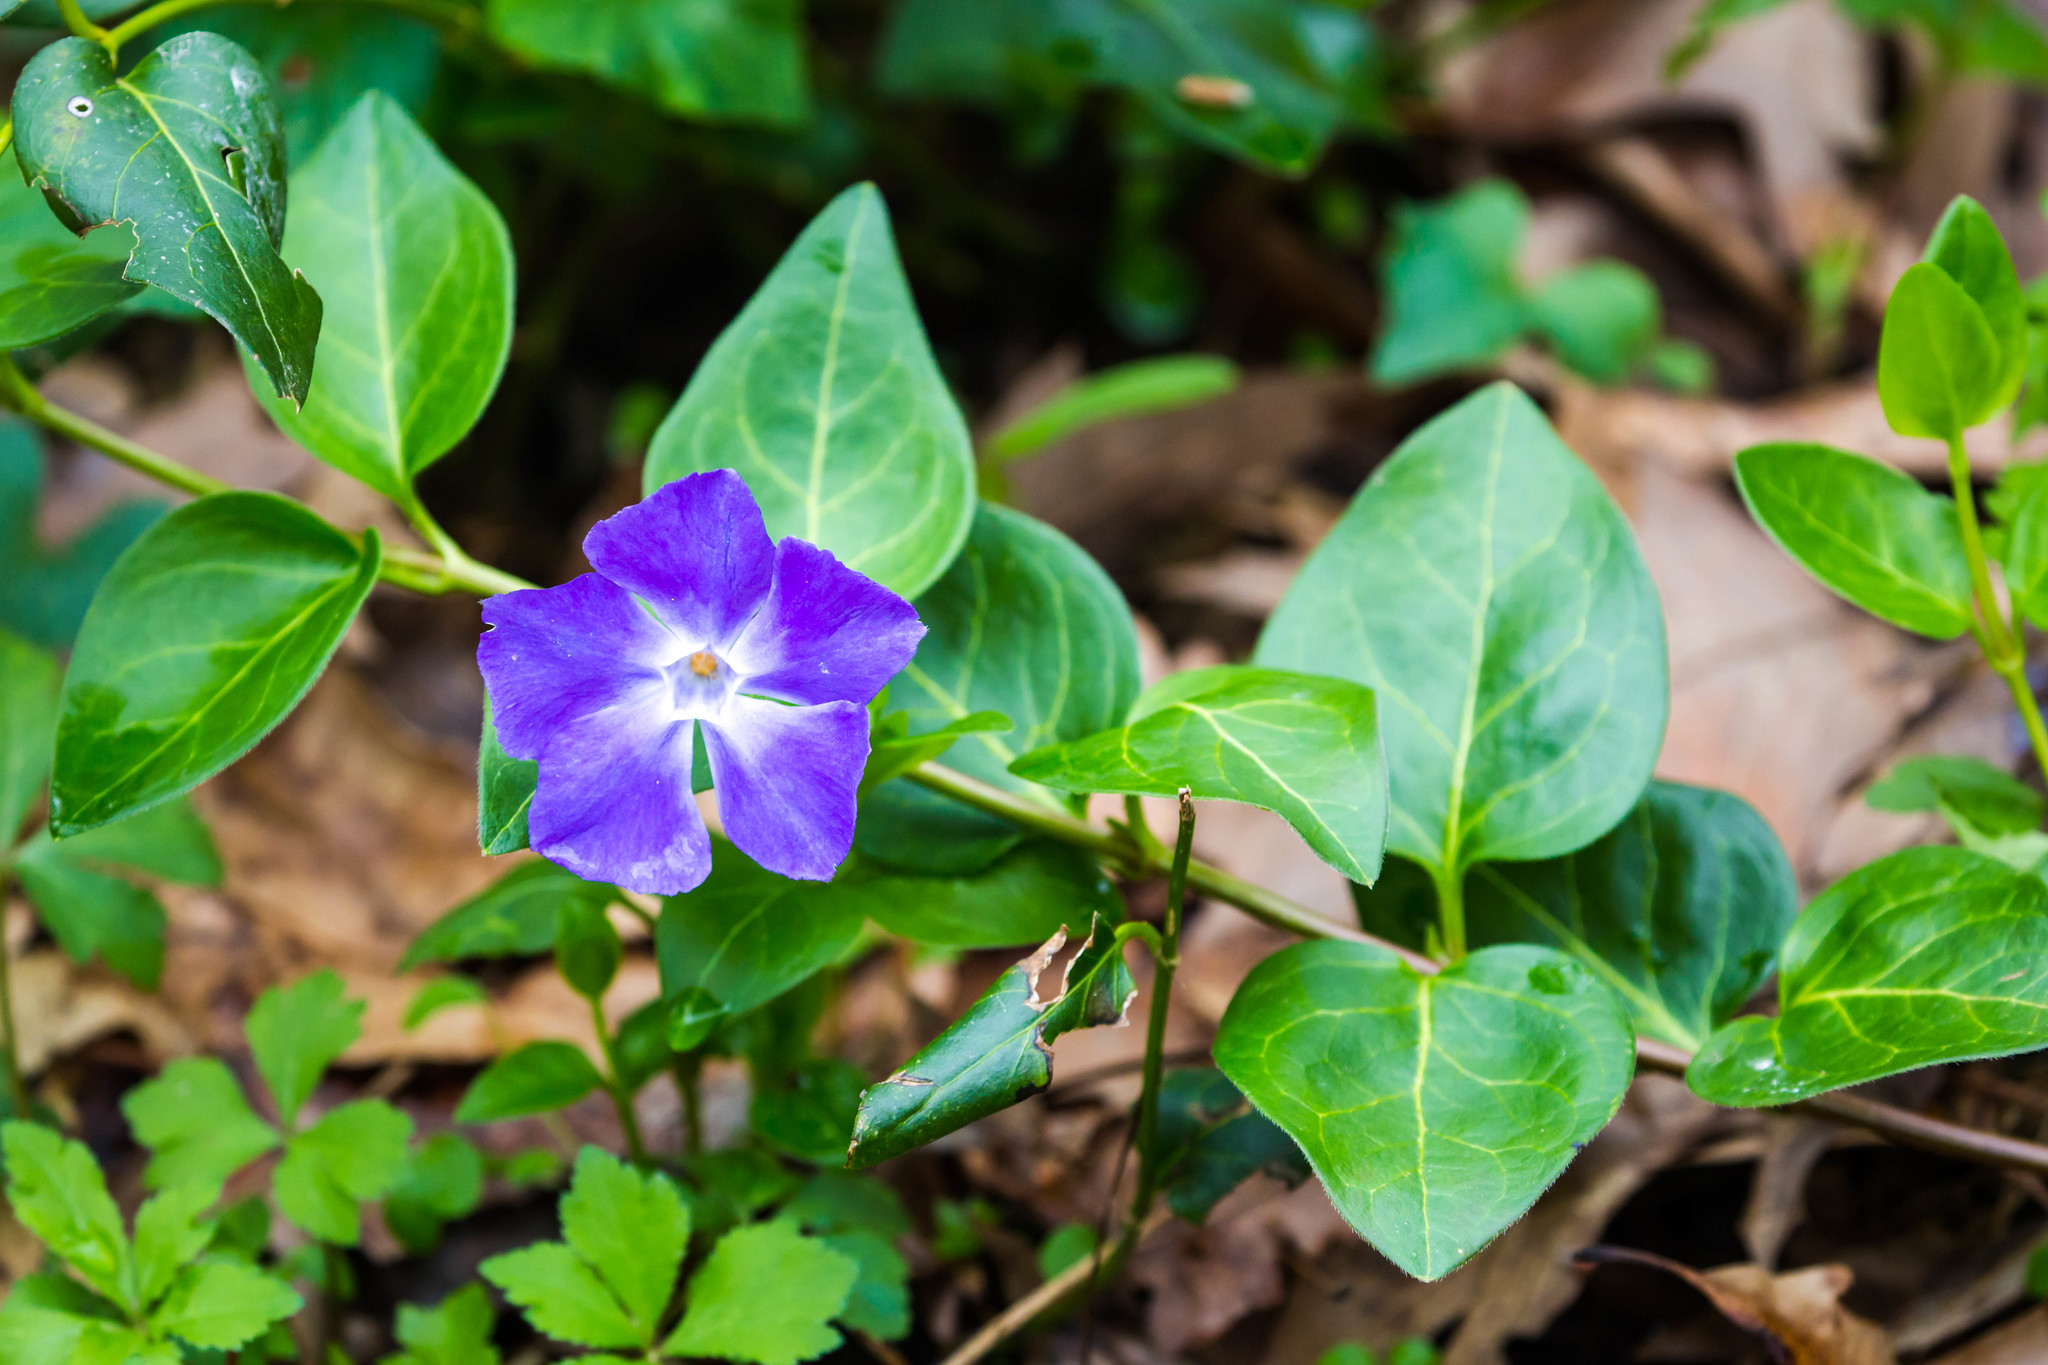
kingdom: Plantae
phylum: Tracheophyta
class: Magnoliopsida
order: Gentianales
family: Apocynaceae
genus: Vinca
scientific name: Vinca major
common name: Greater periwinkle
